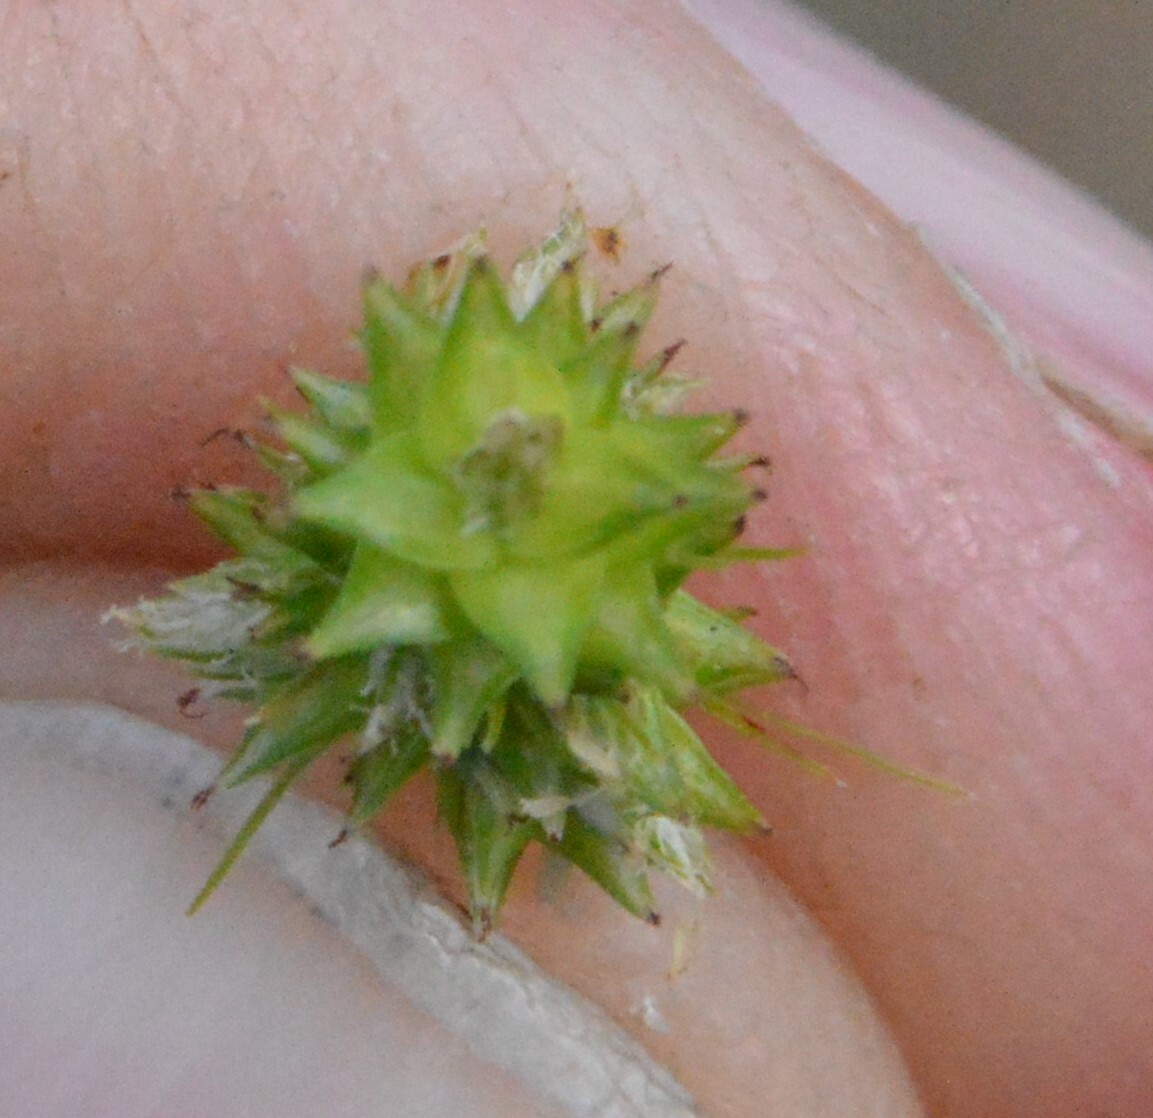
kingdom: Plantae
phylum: Tracheophyta
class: Liliopsida
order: Poales
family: Cyperaceae
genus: Carex
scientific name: Carex leavenworthii
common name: Leavenworth's bracted sedge
